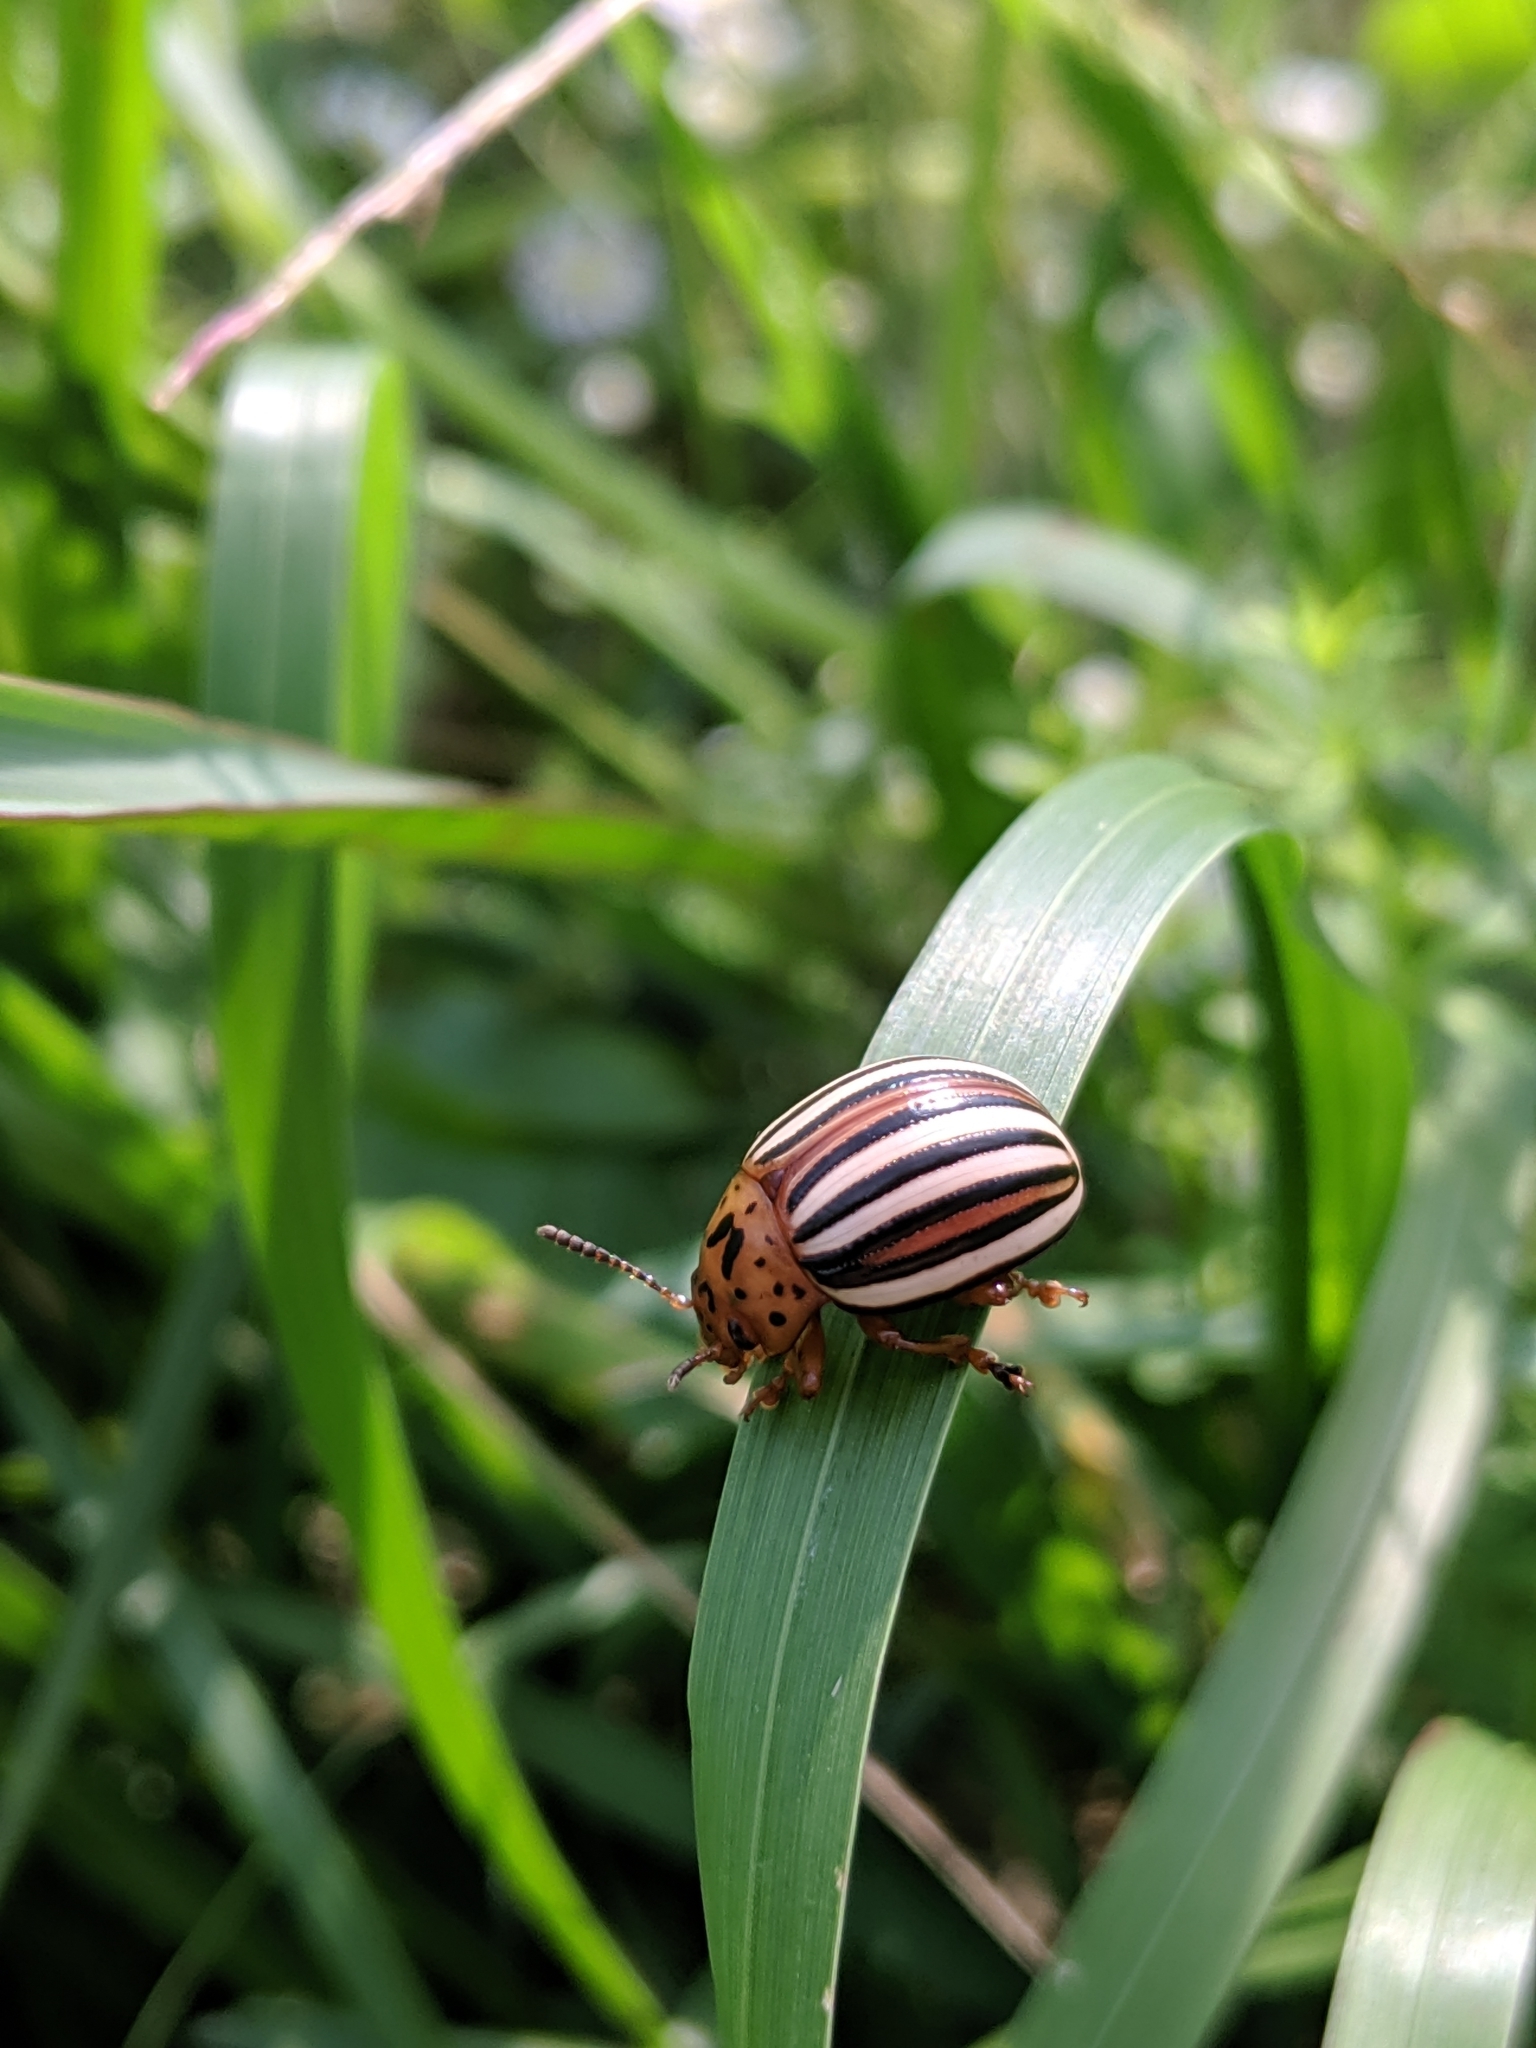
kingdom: Animalia
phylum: Arthropoda
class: Insecta
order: Coleoptera
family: Chrysomelidae
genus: Leptinotarsa
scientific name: Leptinotarsa juncta
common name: False potato beetle
